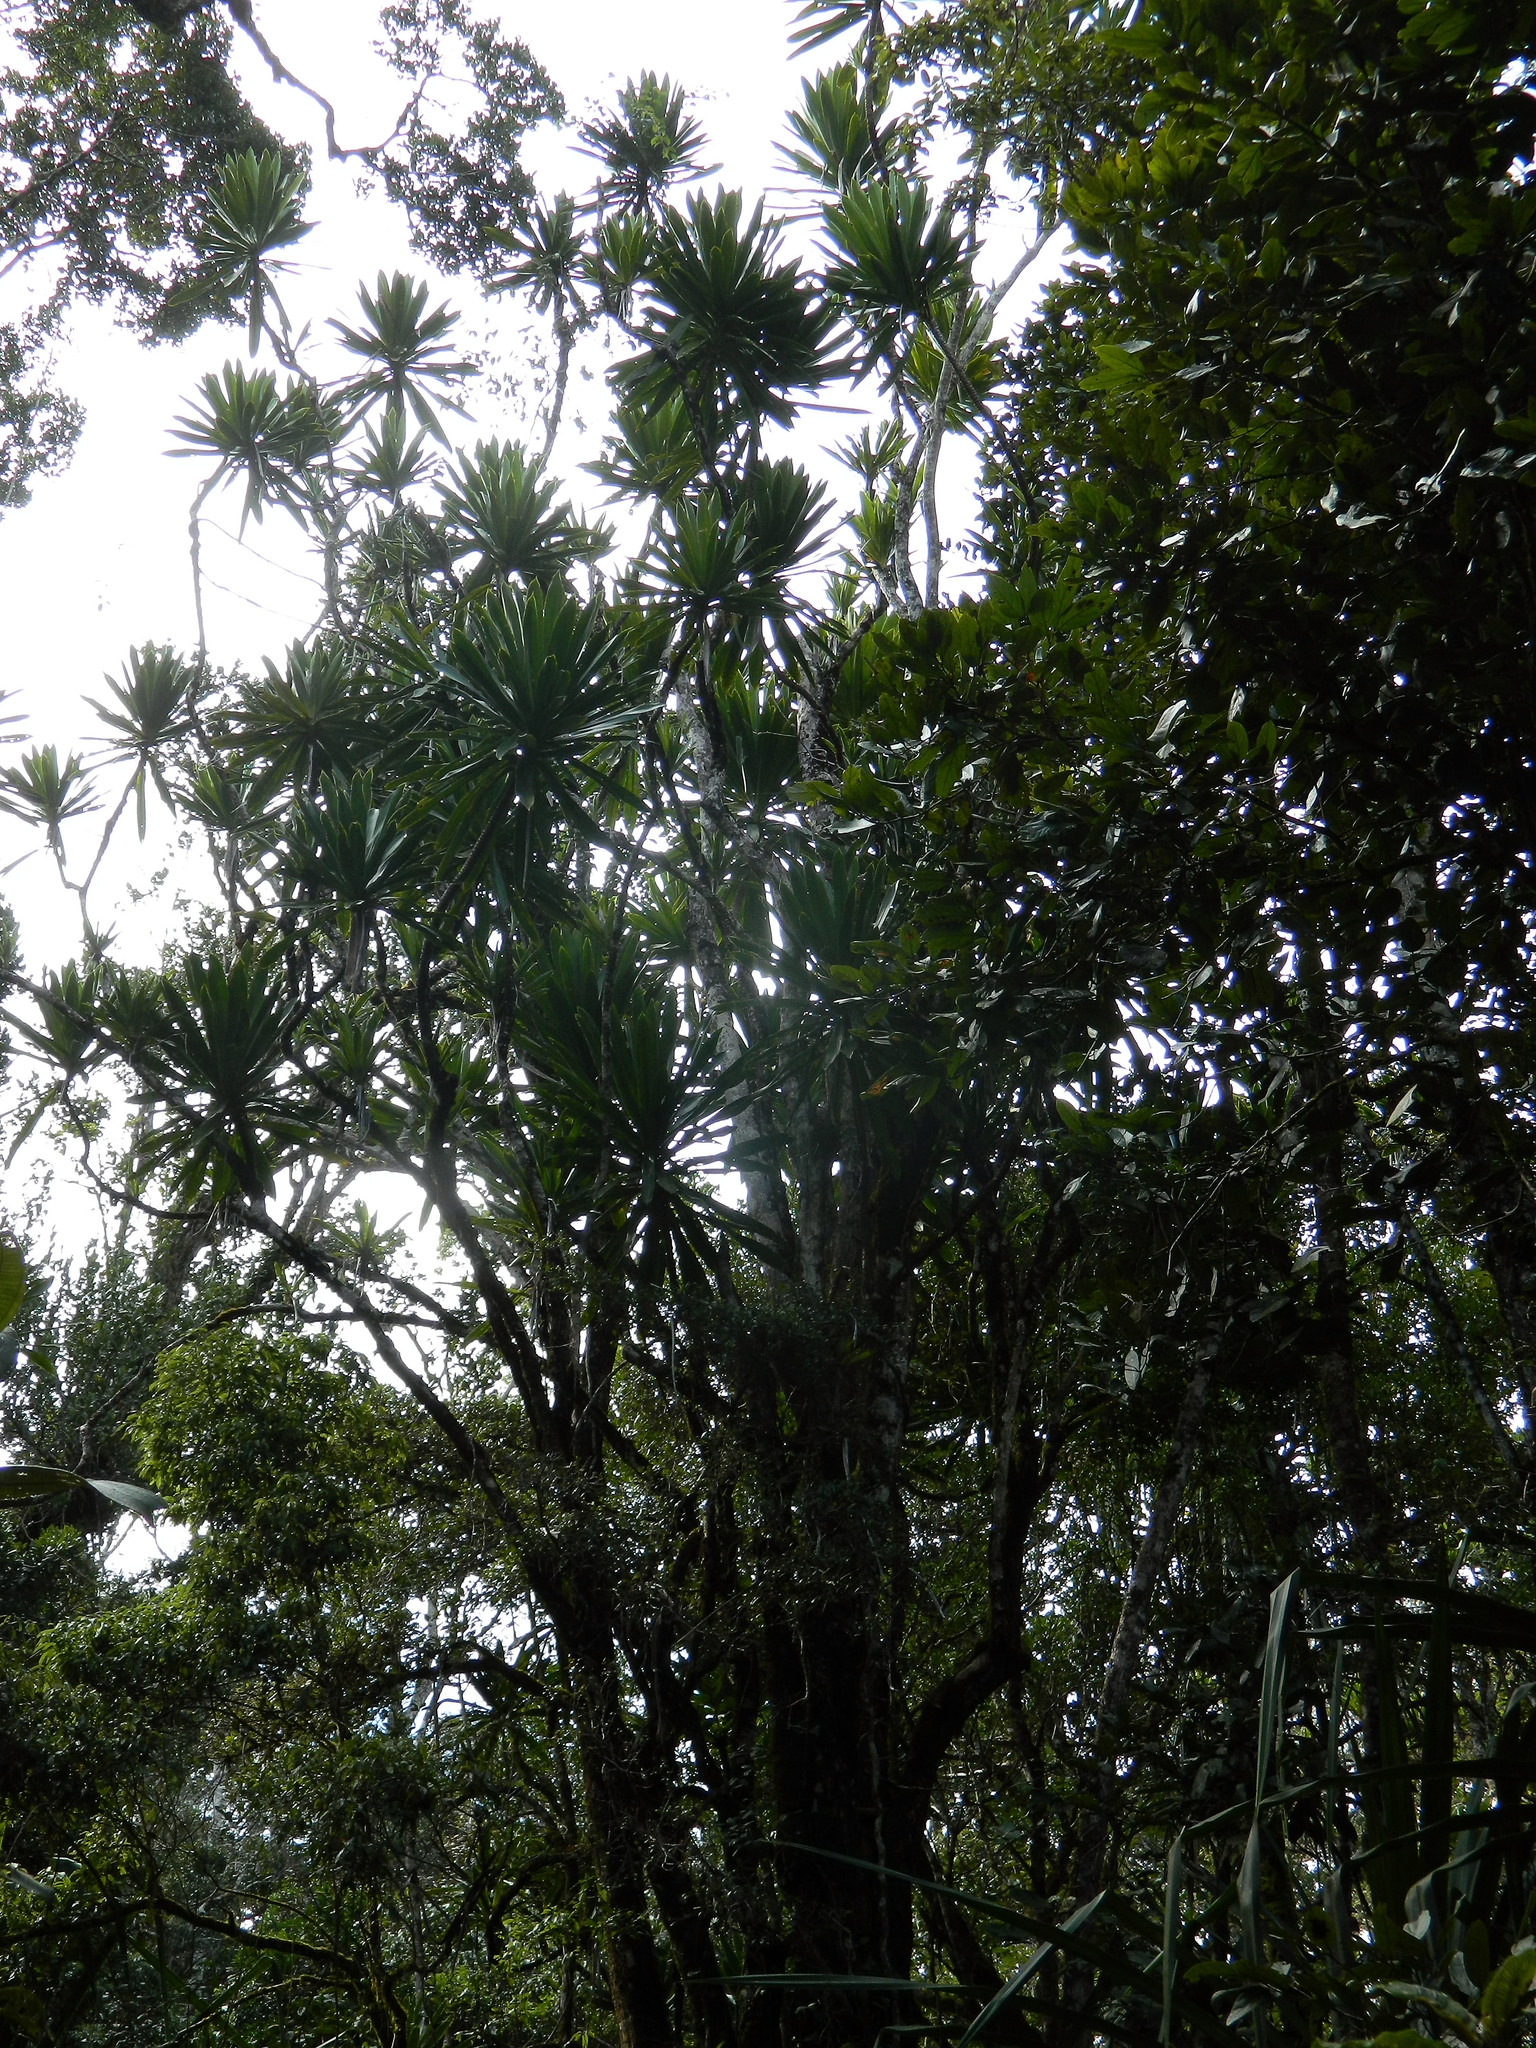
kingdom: Plantae
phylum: Tracheophyta
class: Liliopsida
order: Asparagales
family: Asparagaceae
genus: Dracaena
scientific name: Dracaena xiphophylla
